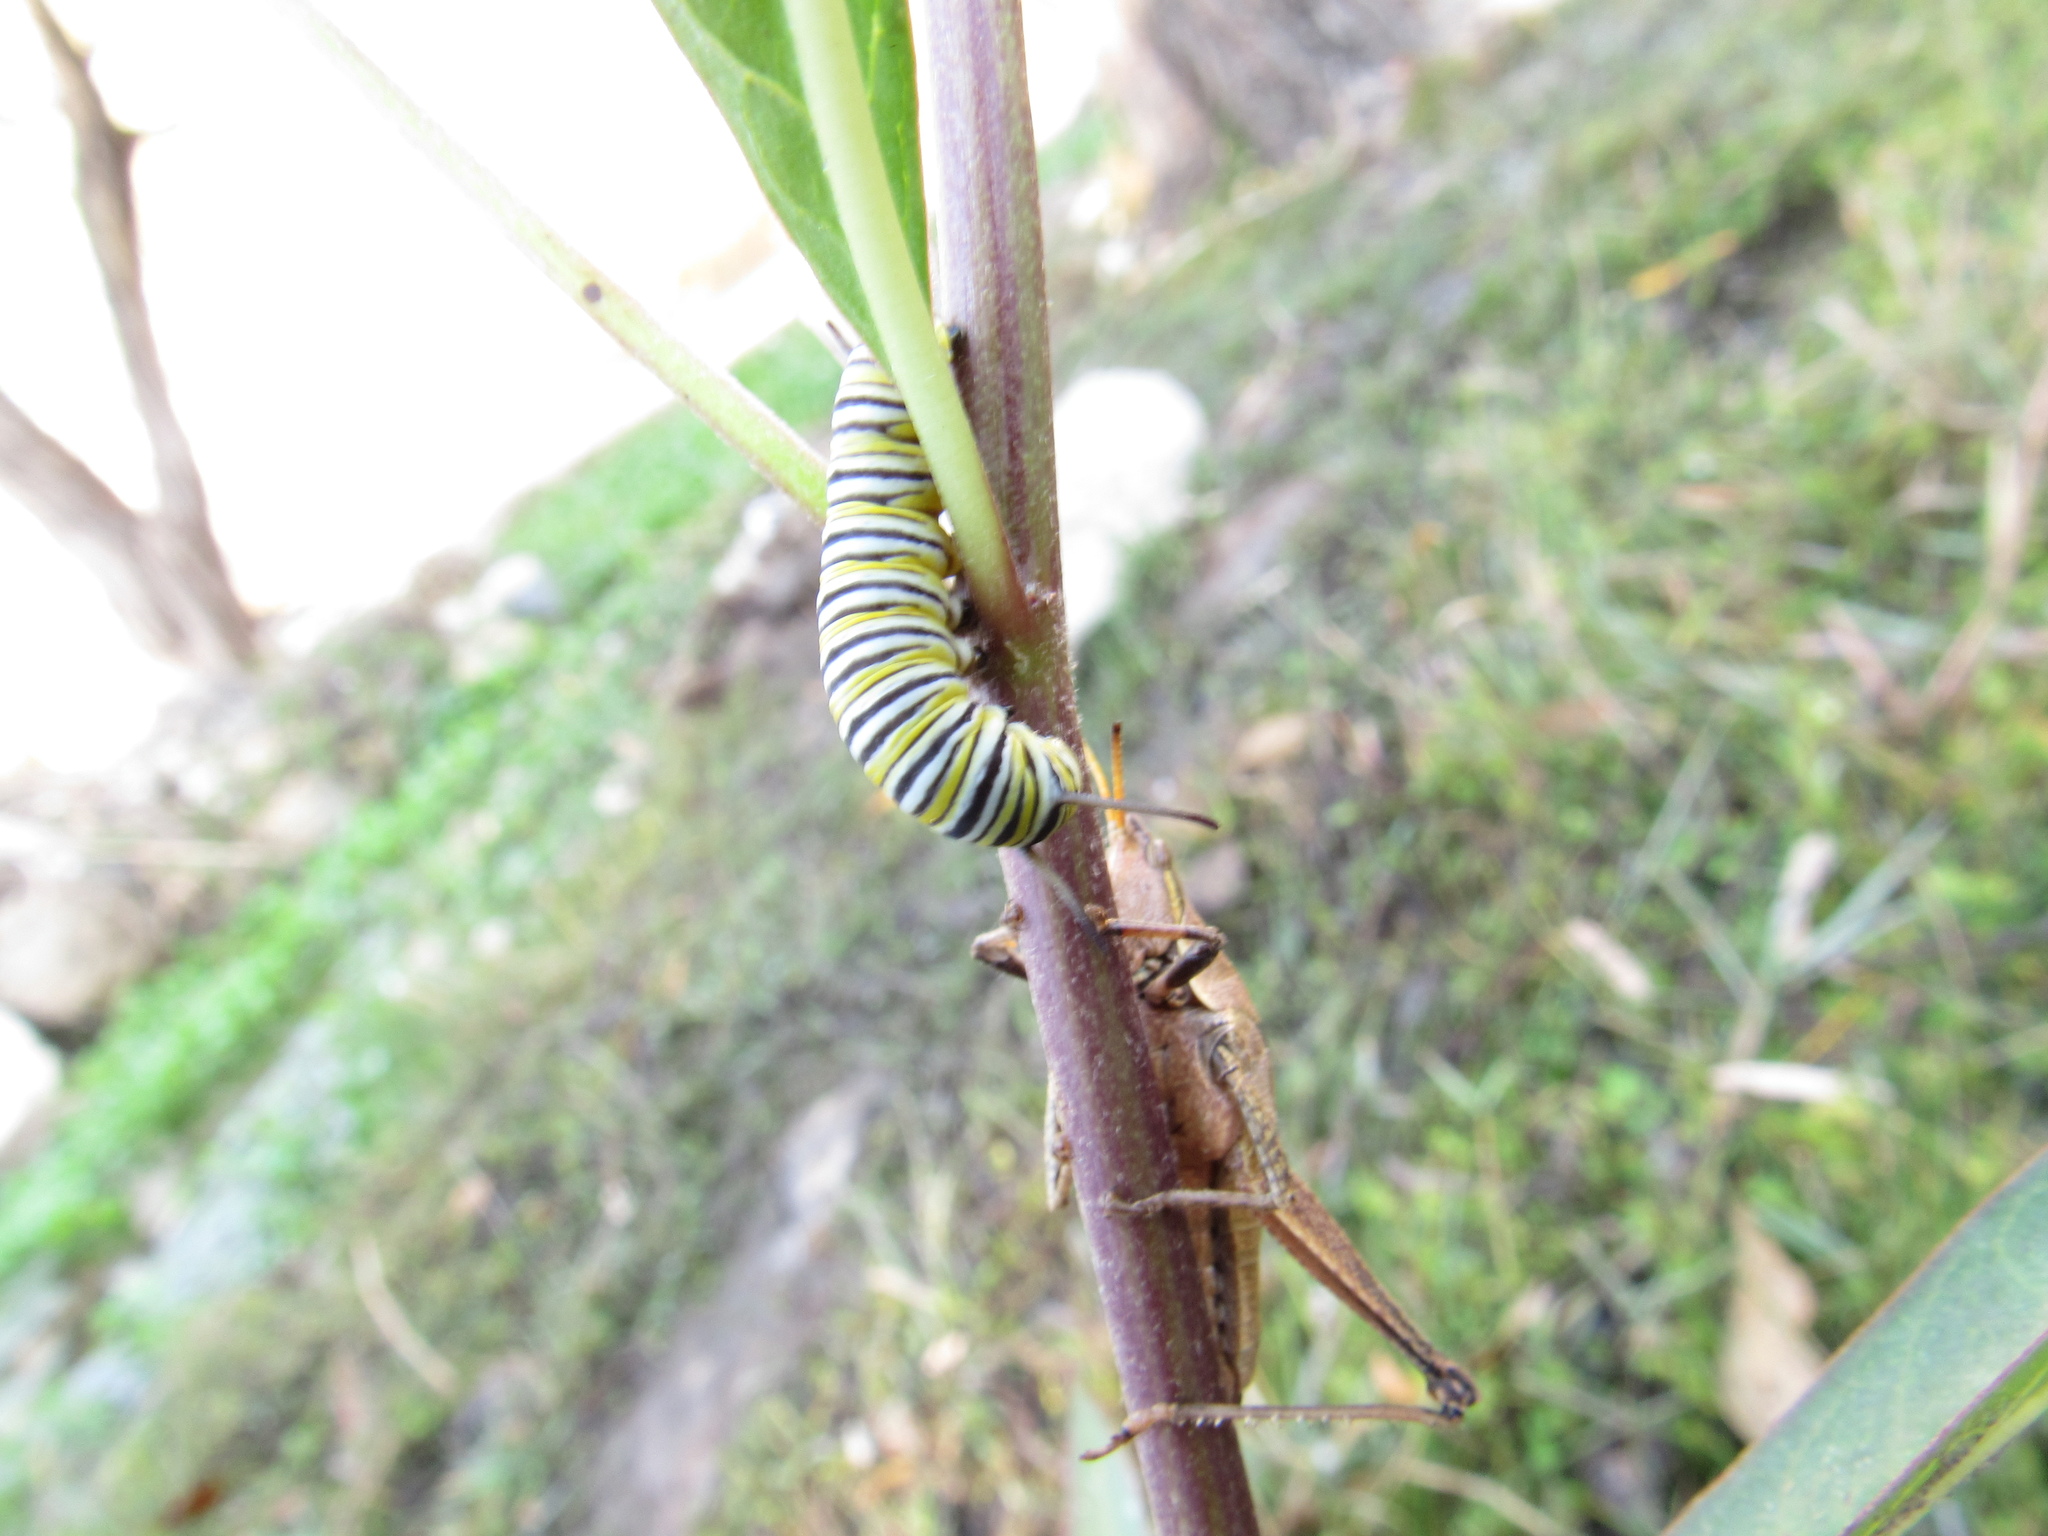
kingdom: Animalia
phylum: Arthropoda
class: Insecta
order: Lepidoptera
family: Nymphalidae
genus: Danaus
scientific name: Danaus plexippus
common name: Monarch
